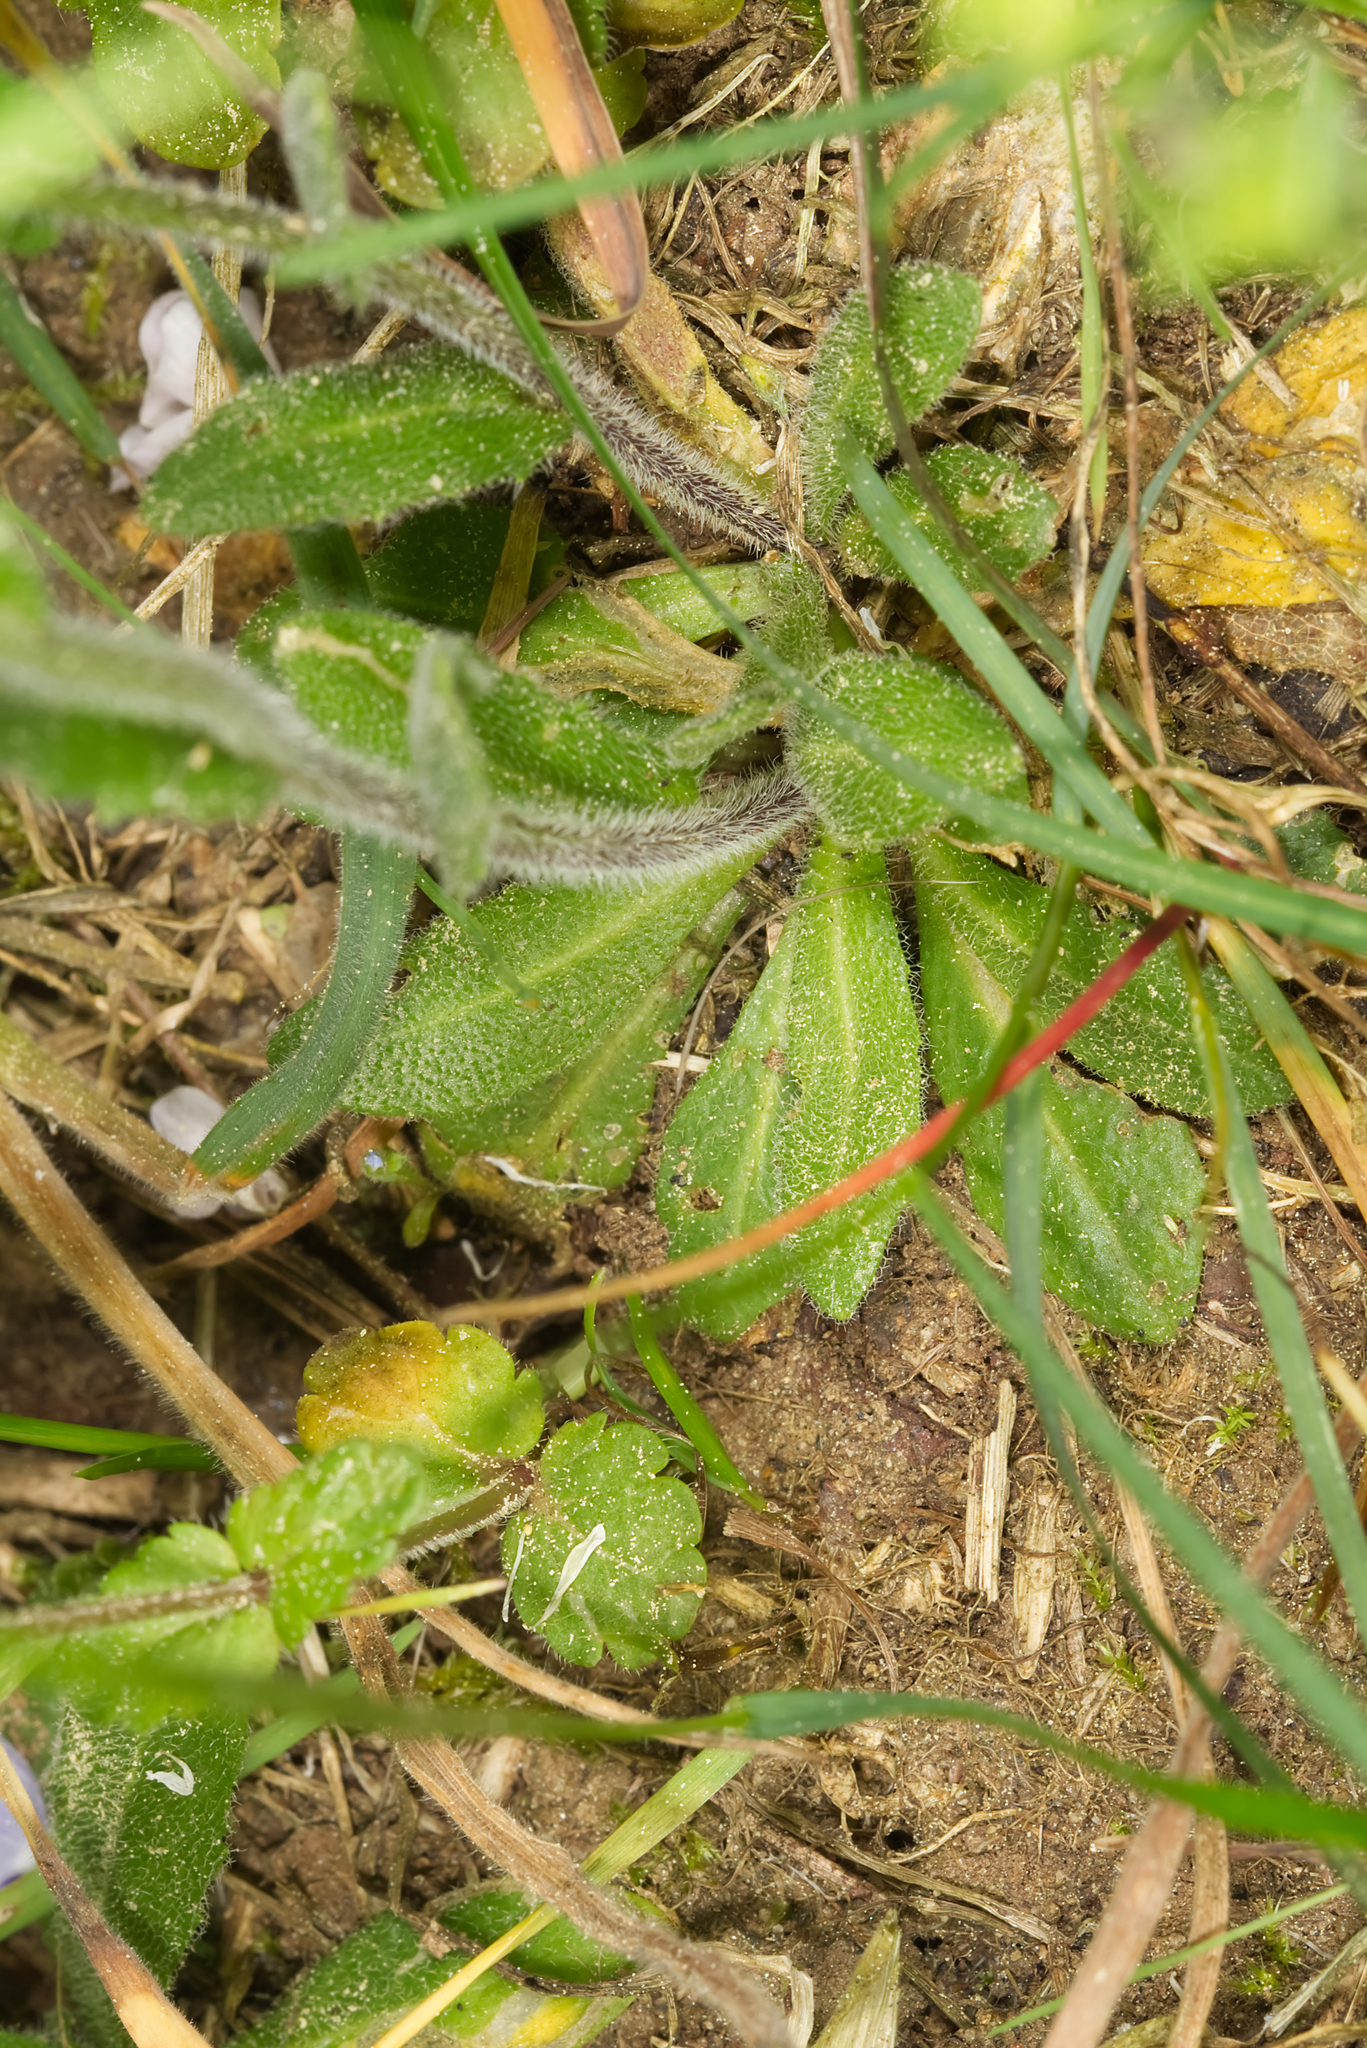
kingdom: Plantae
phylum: Tracheophyta
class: Magnoliopsida
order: Brassicales
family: Brassicaceae
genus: Arabis
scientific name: Arabis hirsuta
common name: Hairy rock-cress
